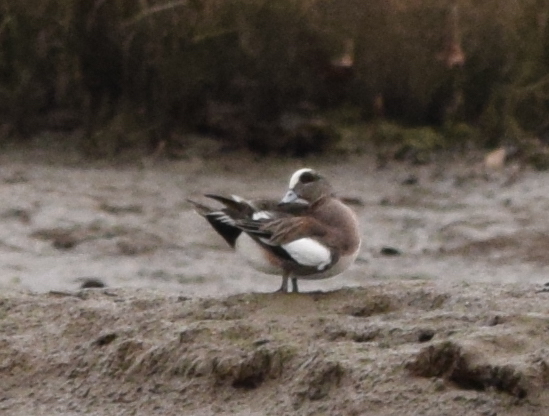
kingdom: Animalia
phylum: Chordata
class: Aves
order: Anseriformes
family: Anatidae
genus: Mareca
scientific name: Mareca americana
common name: American wigeon
